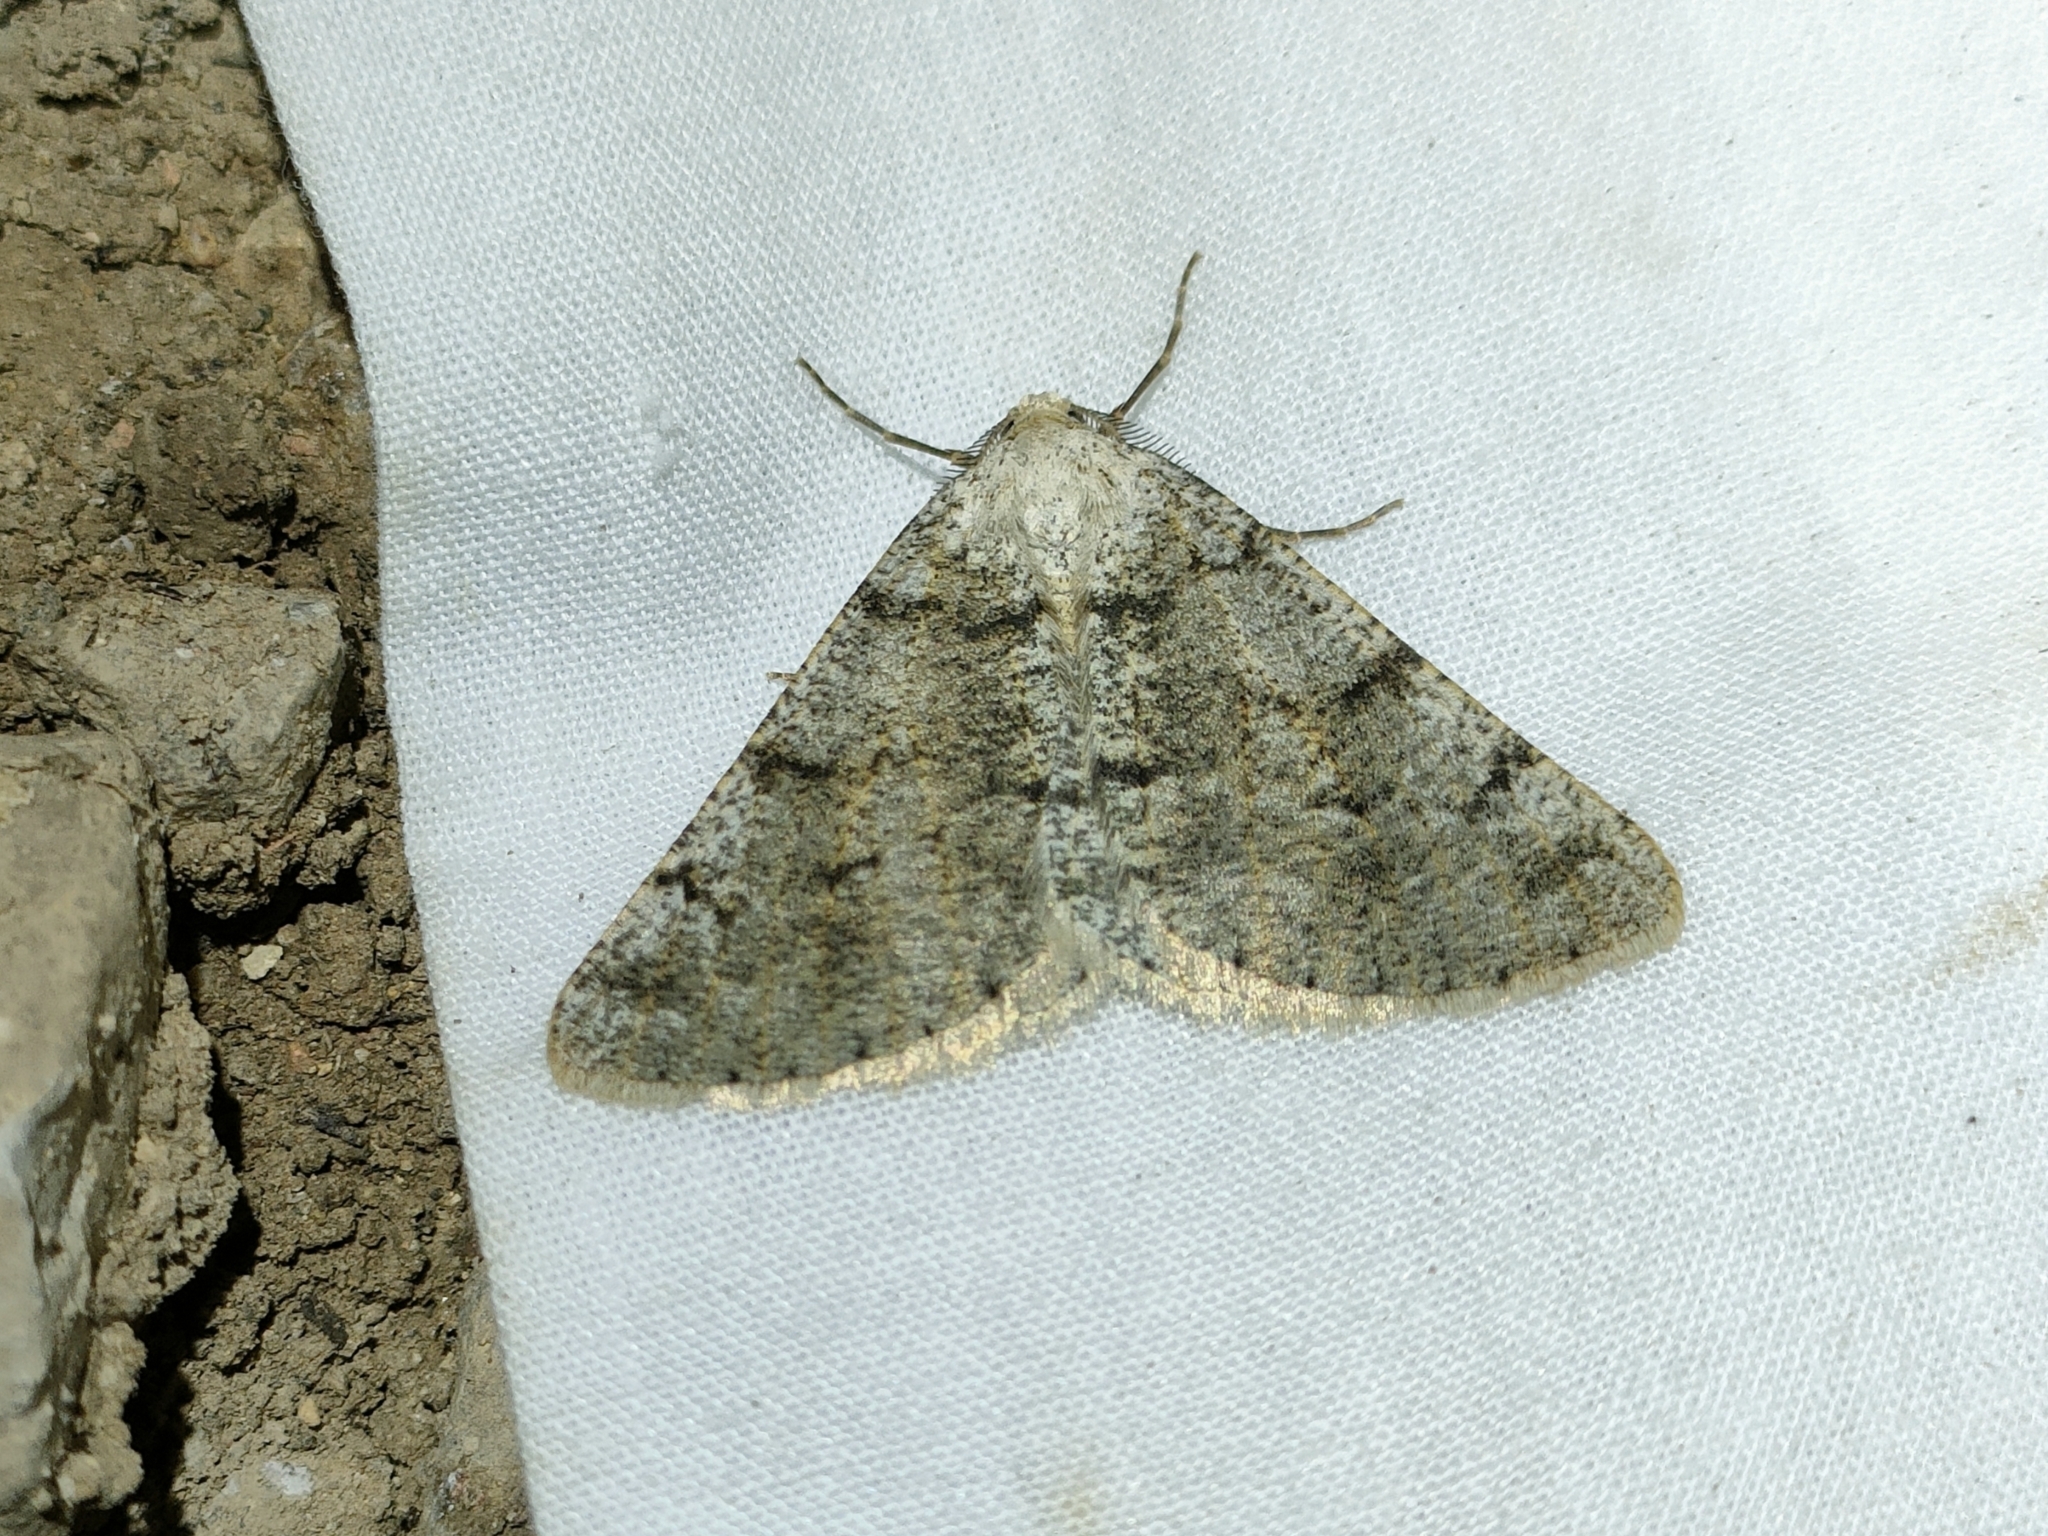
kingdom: Animalia
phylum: Arthropoda
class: Insecta
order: Lepidoptera
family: Geometridae
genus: Isturgia
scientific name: Isturgia miniosaria
